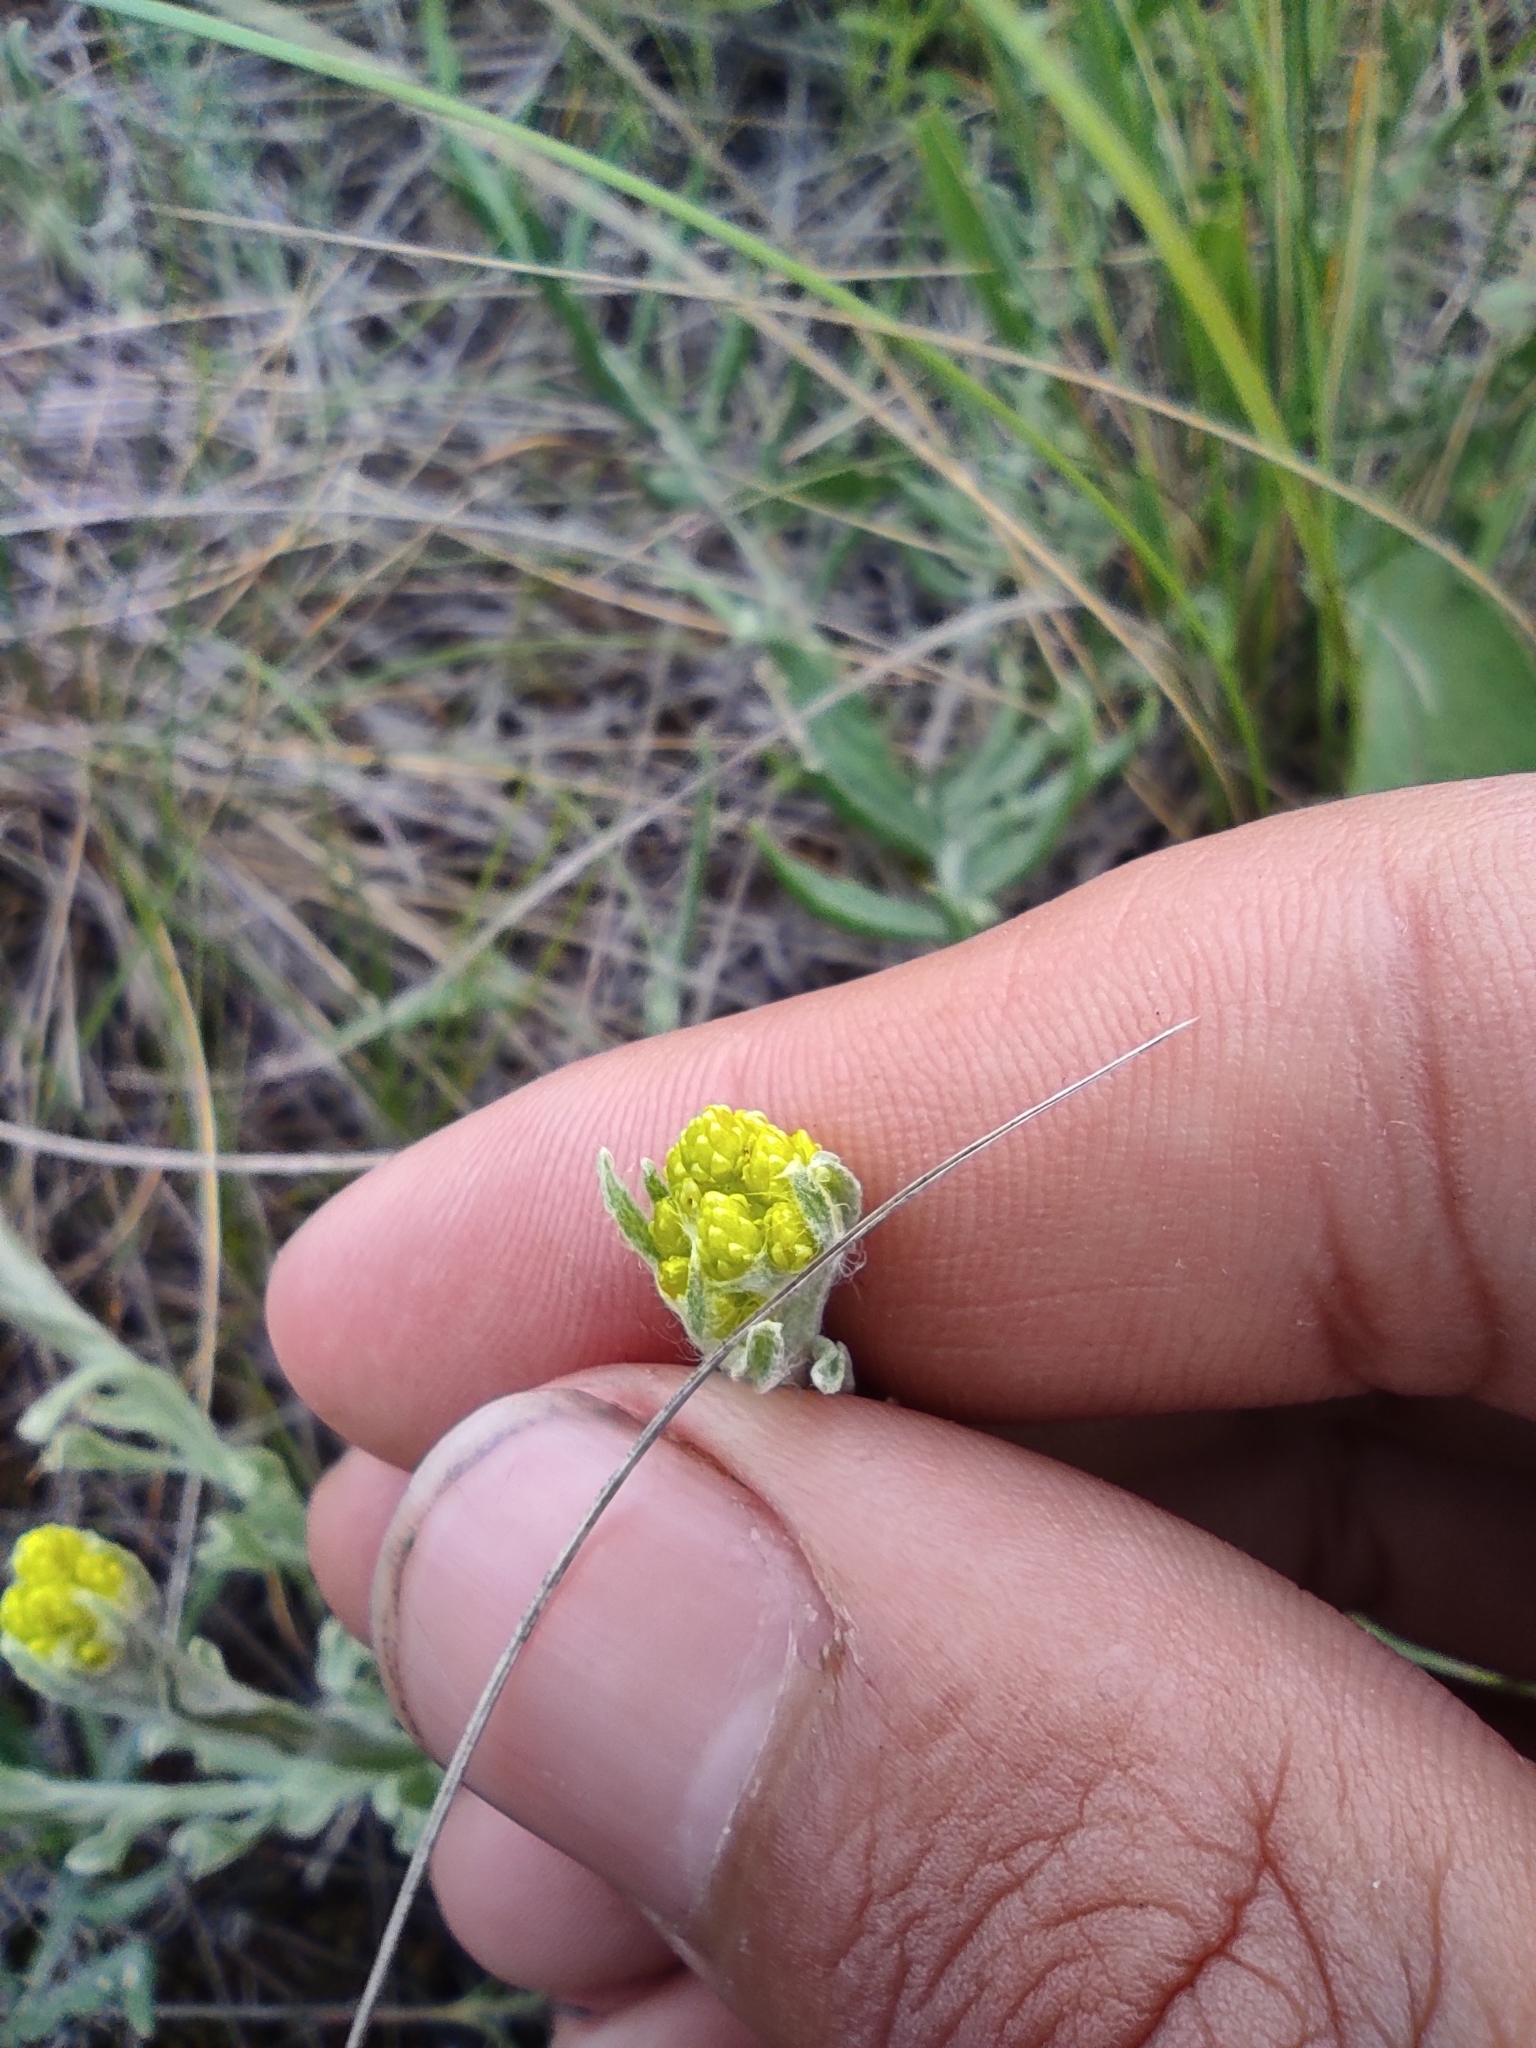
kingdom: Plantae
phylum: Tracheophyta
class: Magnoliopsida
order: Asterales
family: Asteraceae
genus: Helichrysum
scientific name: Helichrysum arenarium
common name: Strawflower
